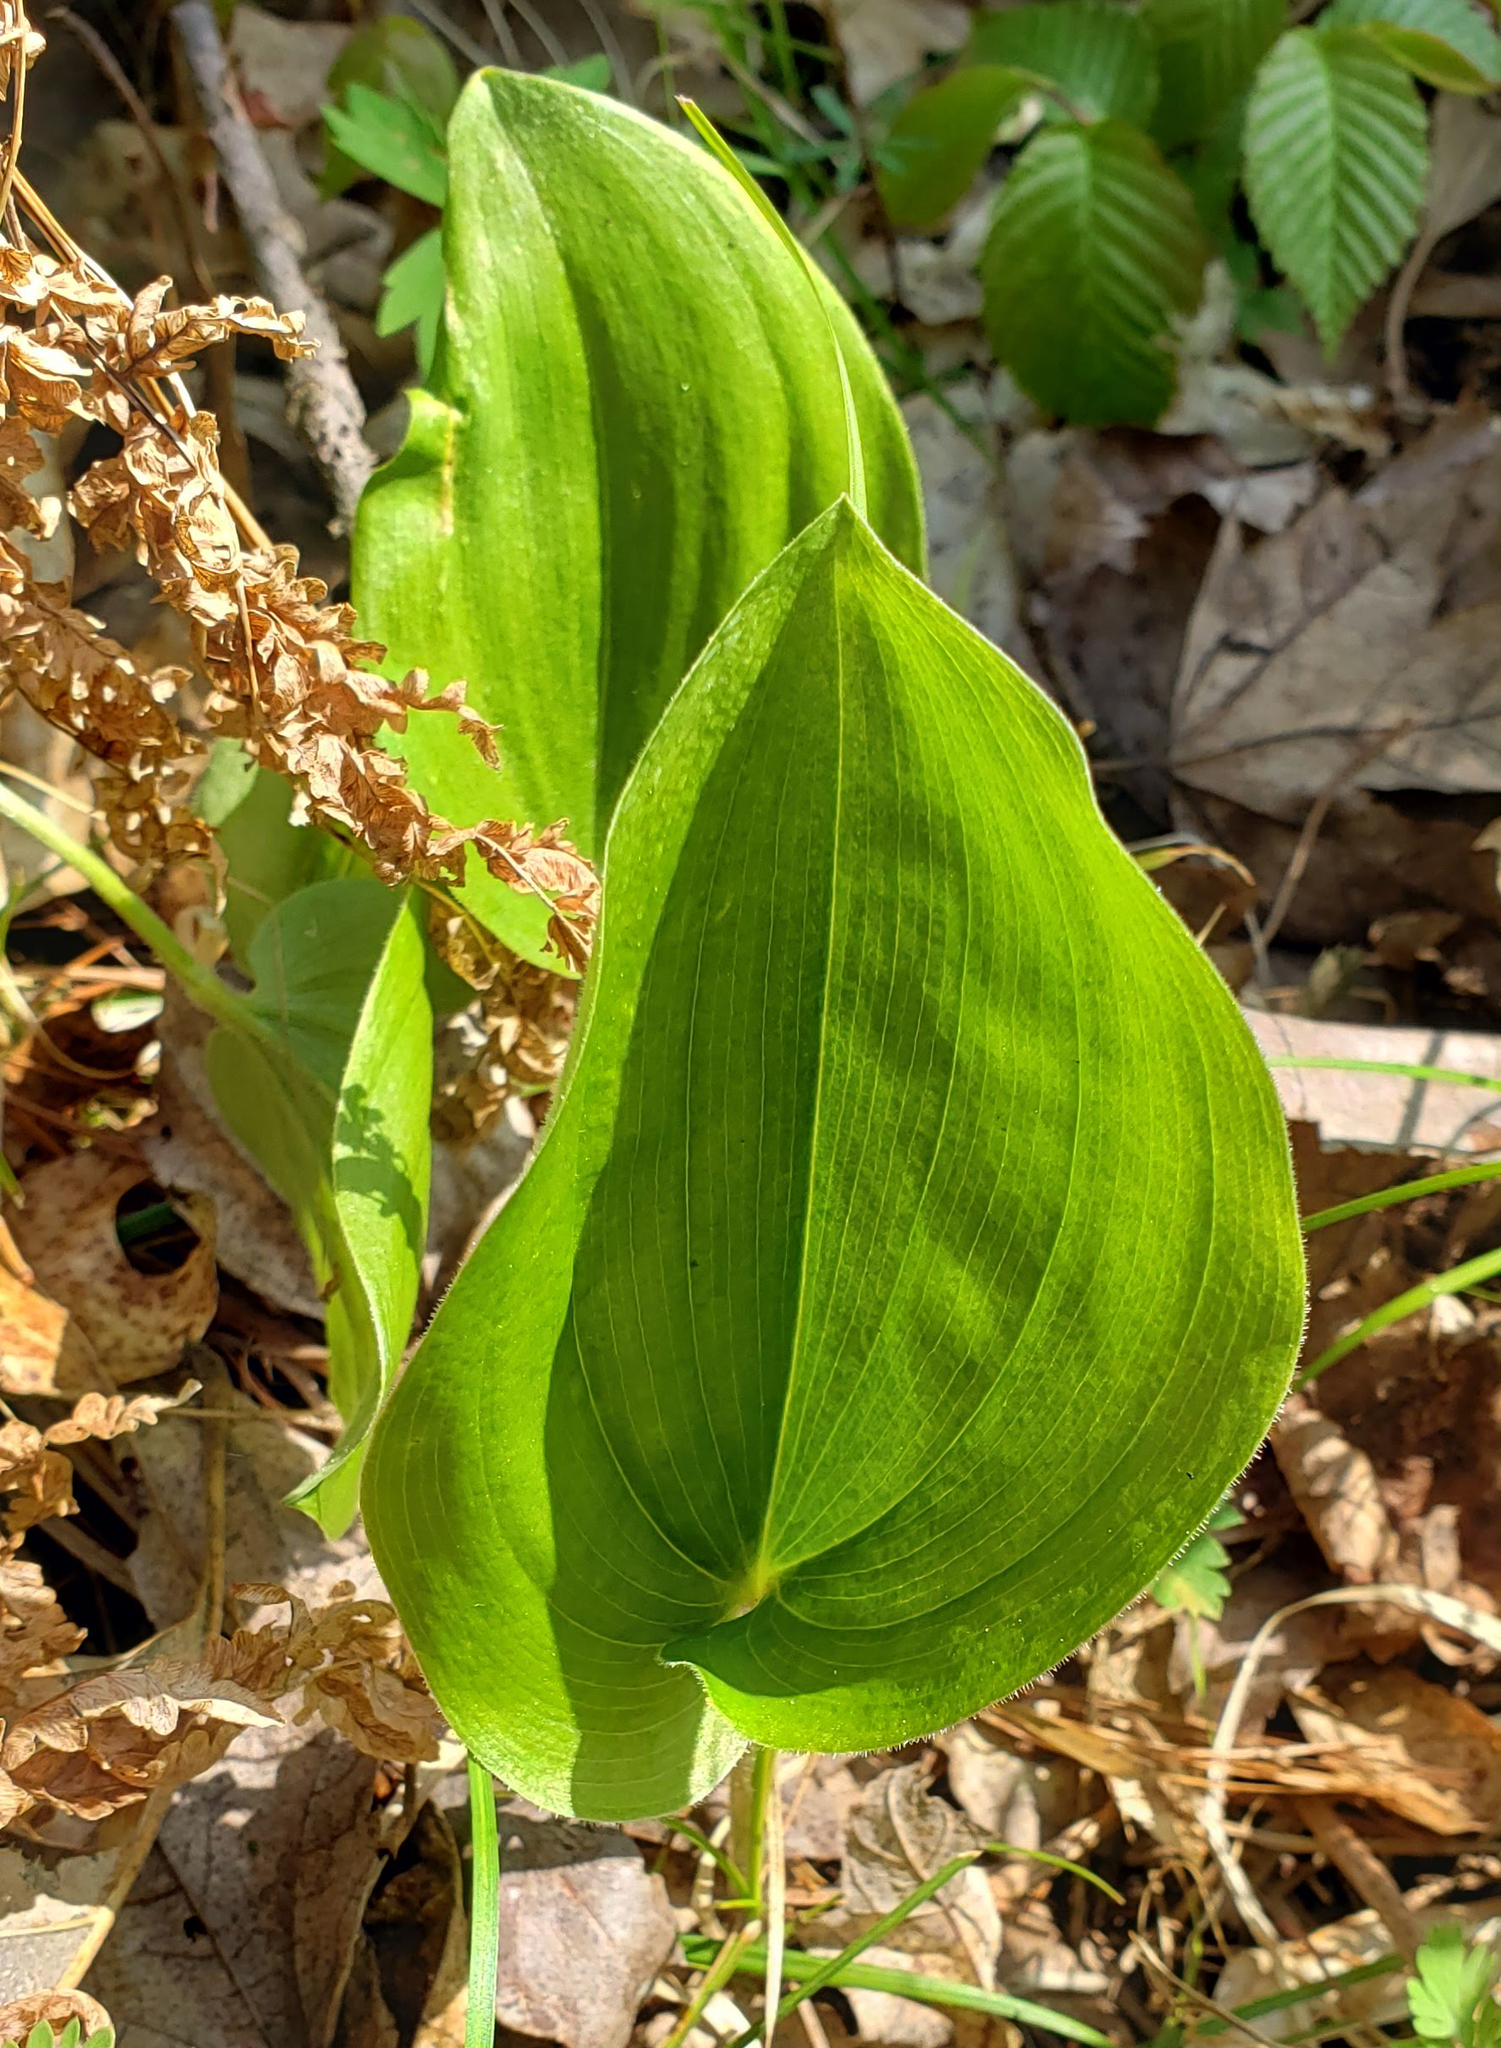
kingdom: Plantae
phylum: Tracheophyta
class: Liliopsida
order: Asparagales
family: Asparagaceae
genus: Maianthemum
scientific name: Maianthemum canadense
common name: False lily-of-the-valley
